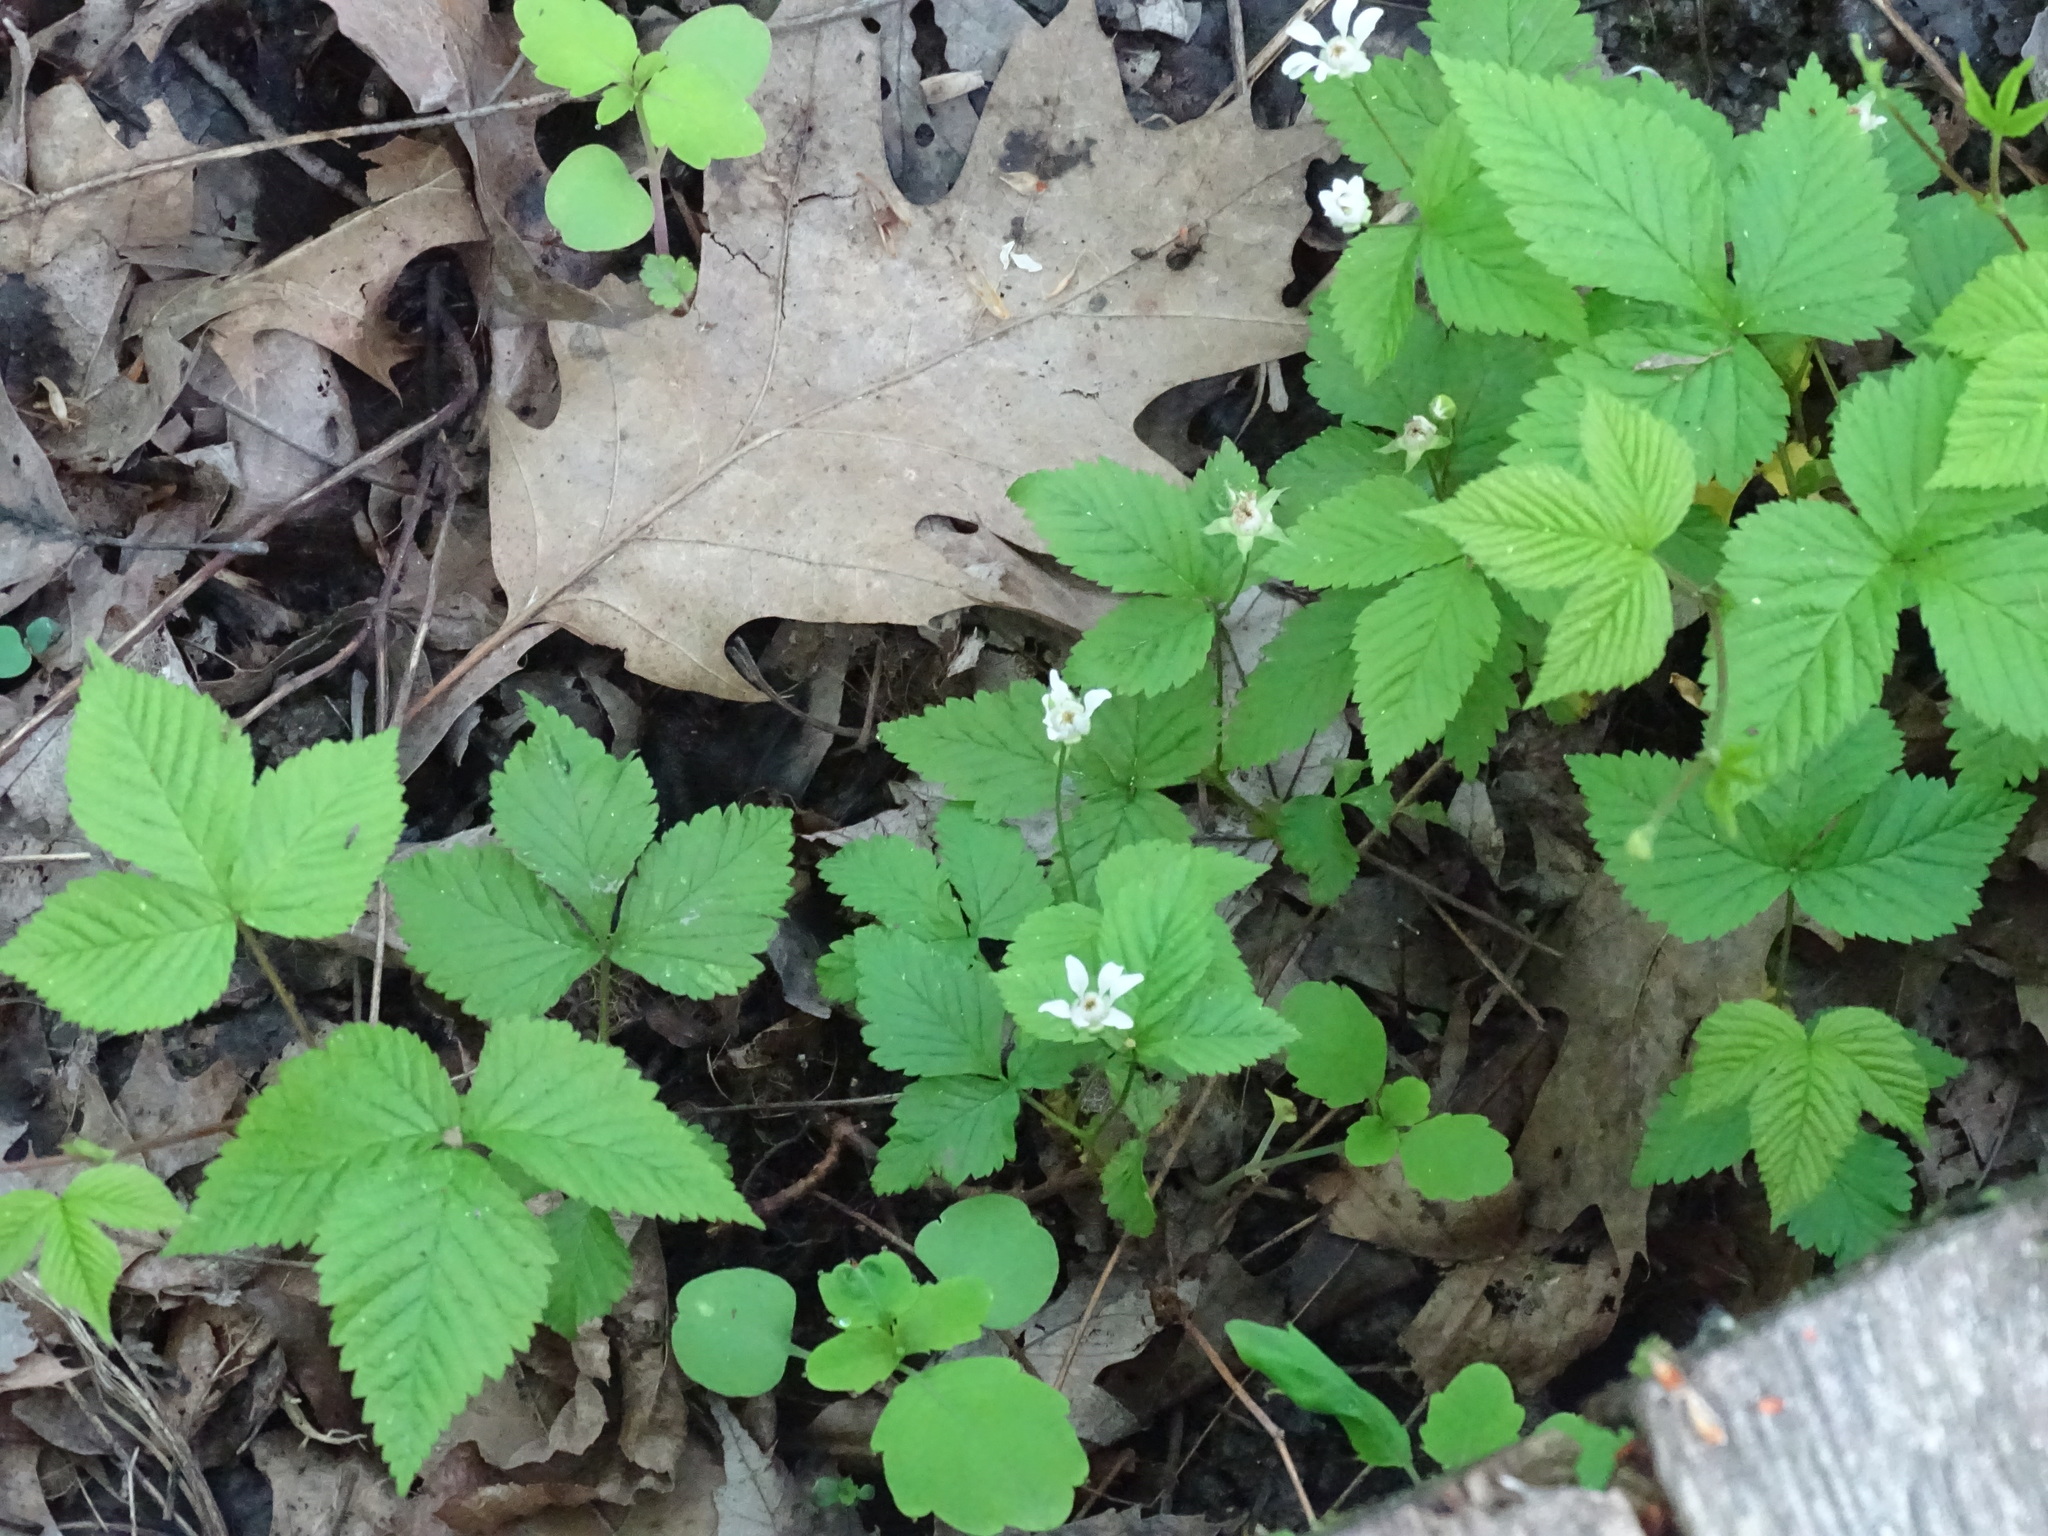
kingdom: Plantae
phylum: Tracheophyta
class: Magnoliopsida
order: Rosales
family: Rosaceae
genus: Rubus
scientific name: Rubus pubescens
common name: Dwarf raspberry
